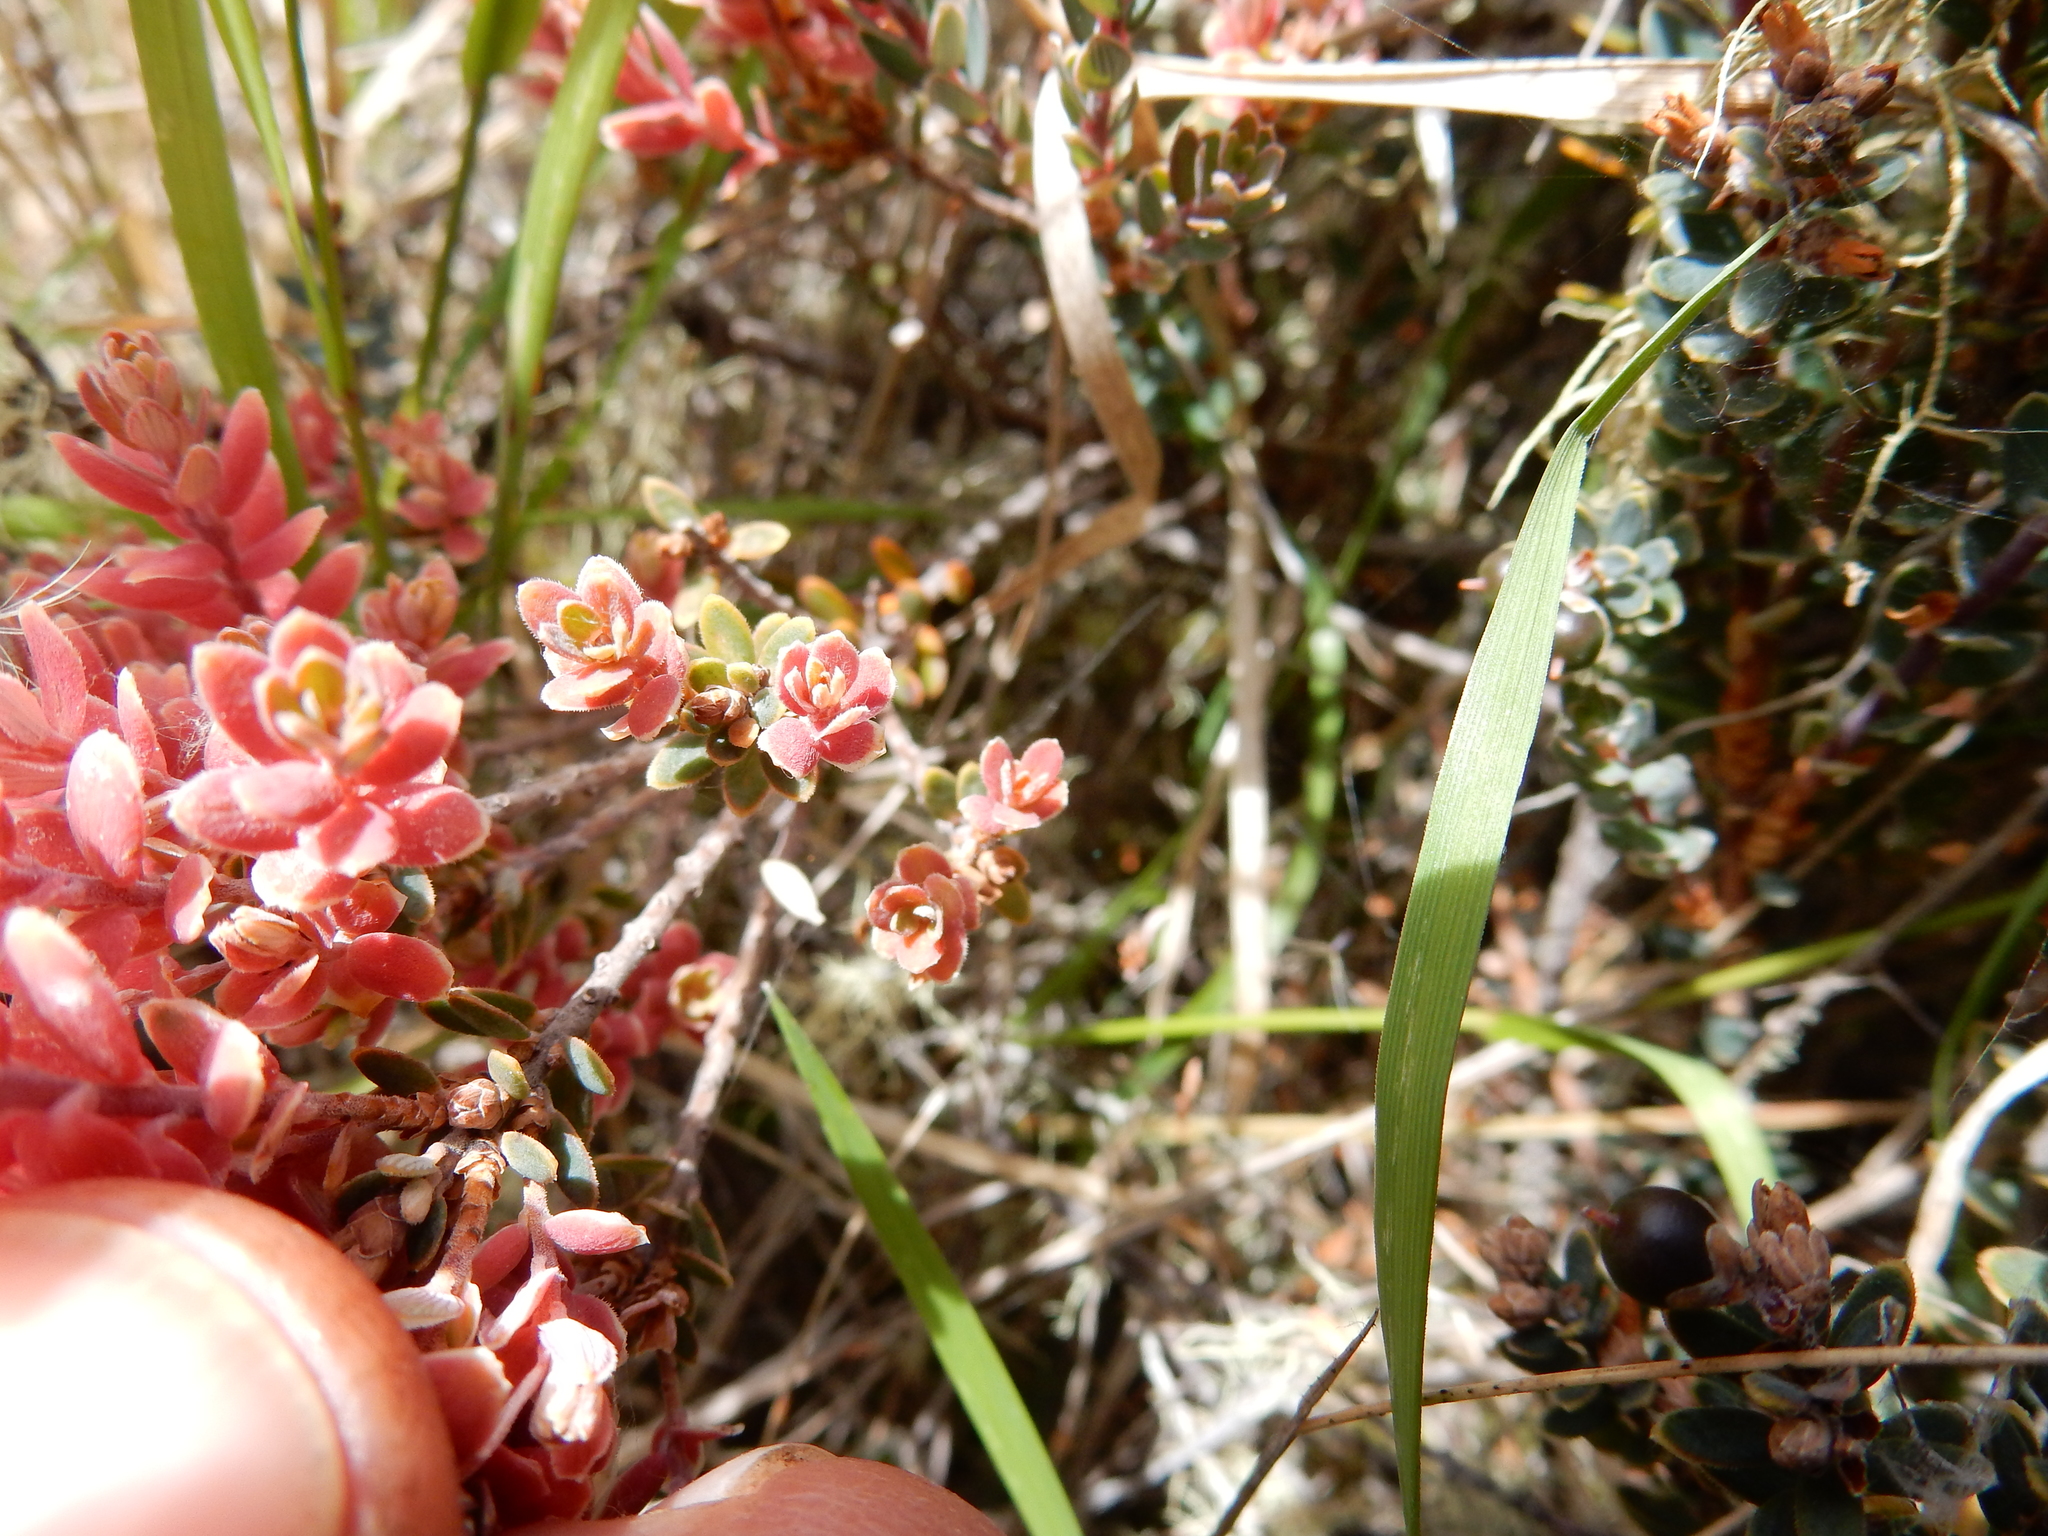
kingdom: Plantae
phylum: Tracheophyta
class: Magnoliopsida
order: Ericales
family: Ericaceae
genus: Acrothamnus
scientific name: Acrothamnus colensoi
